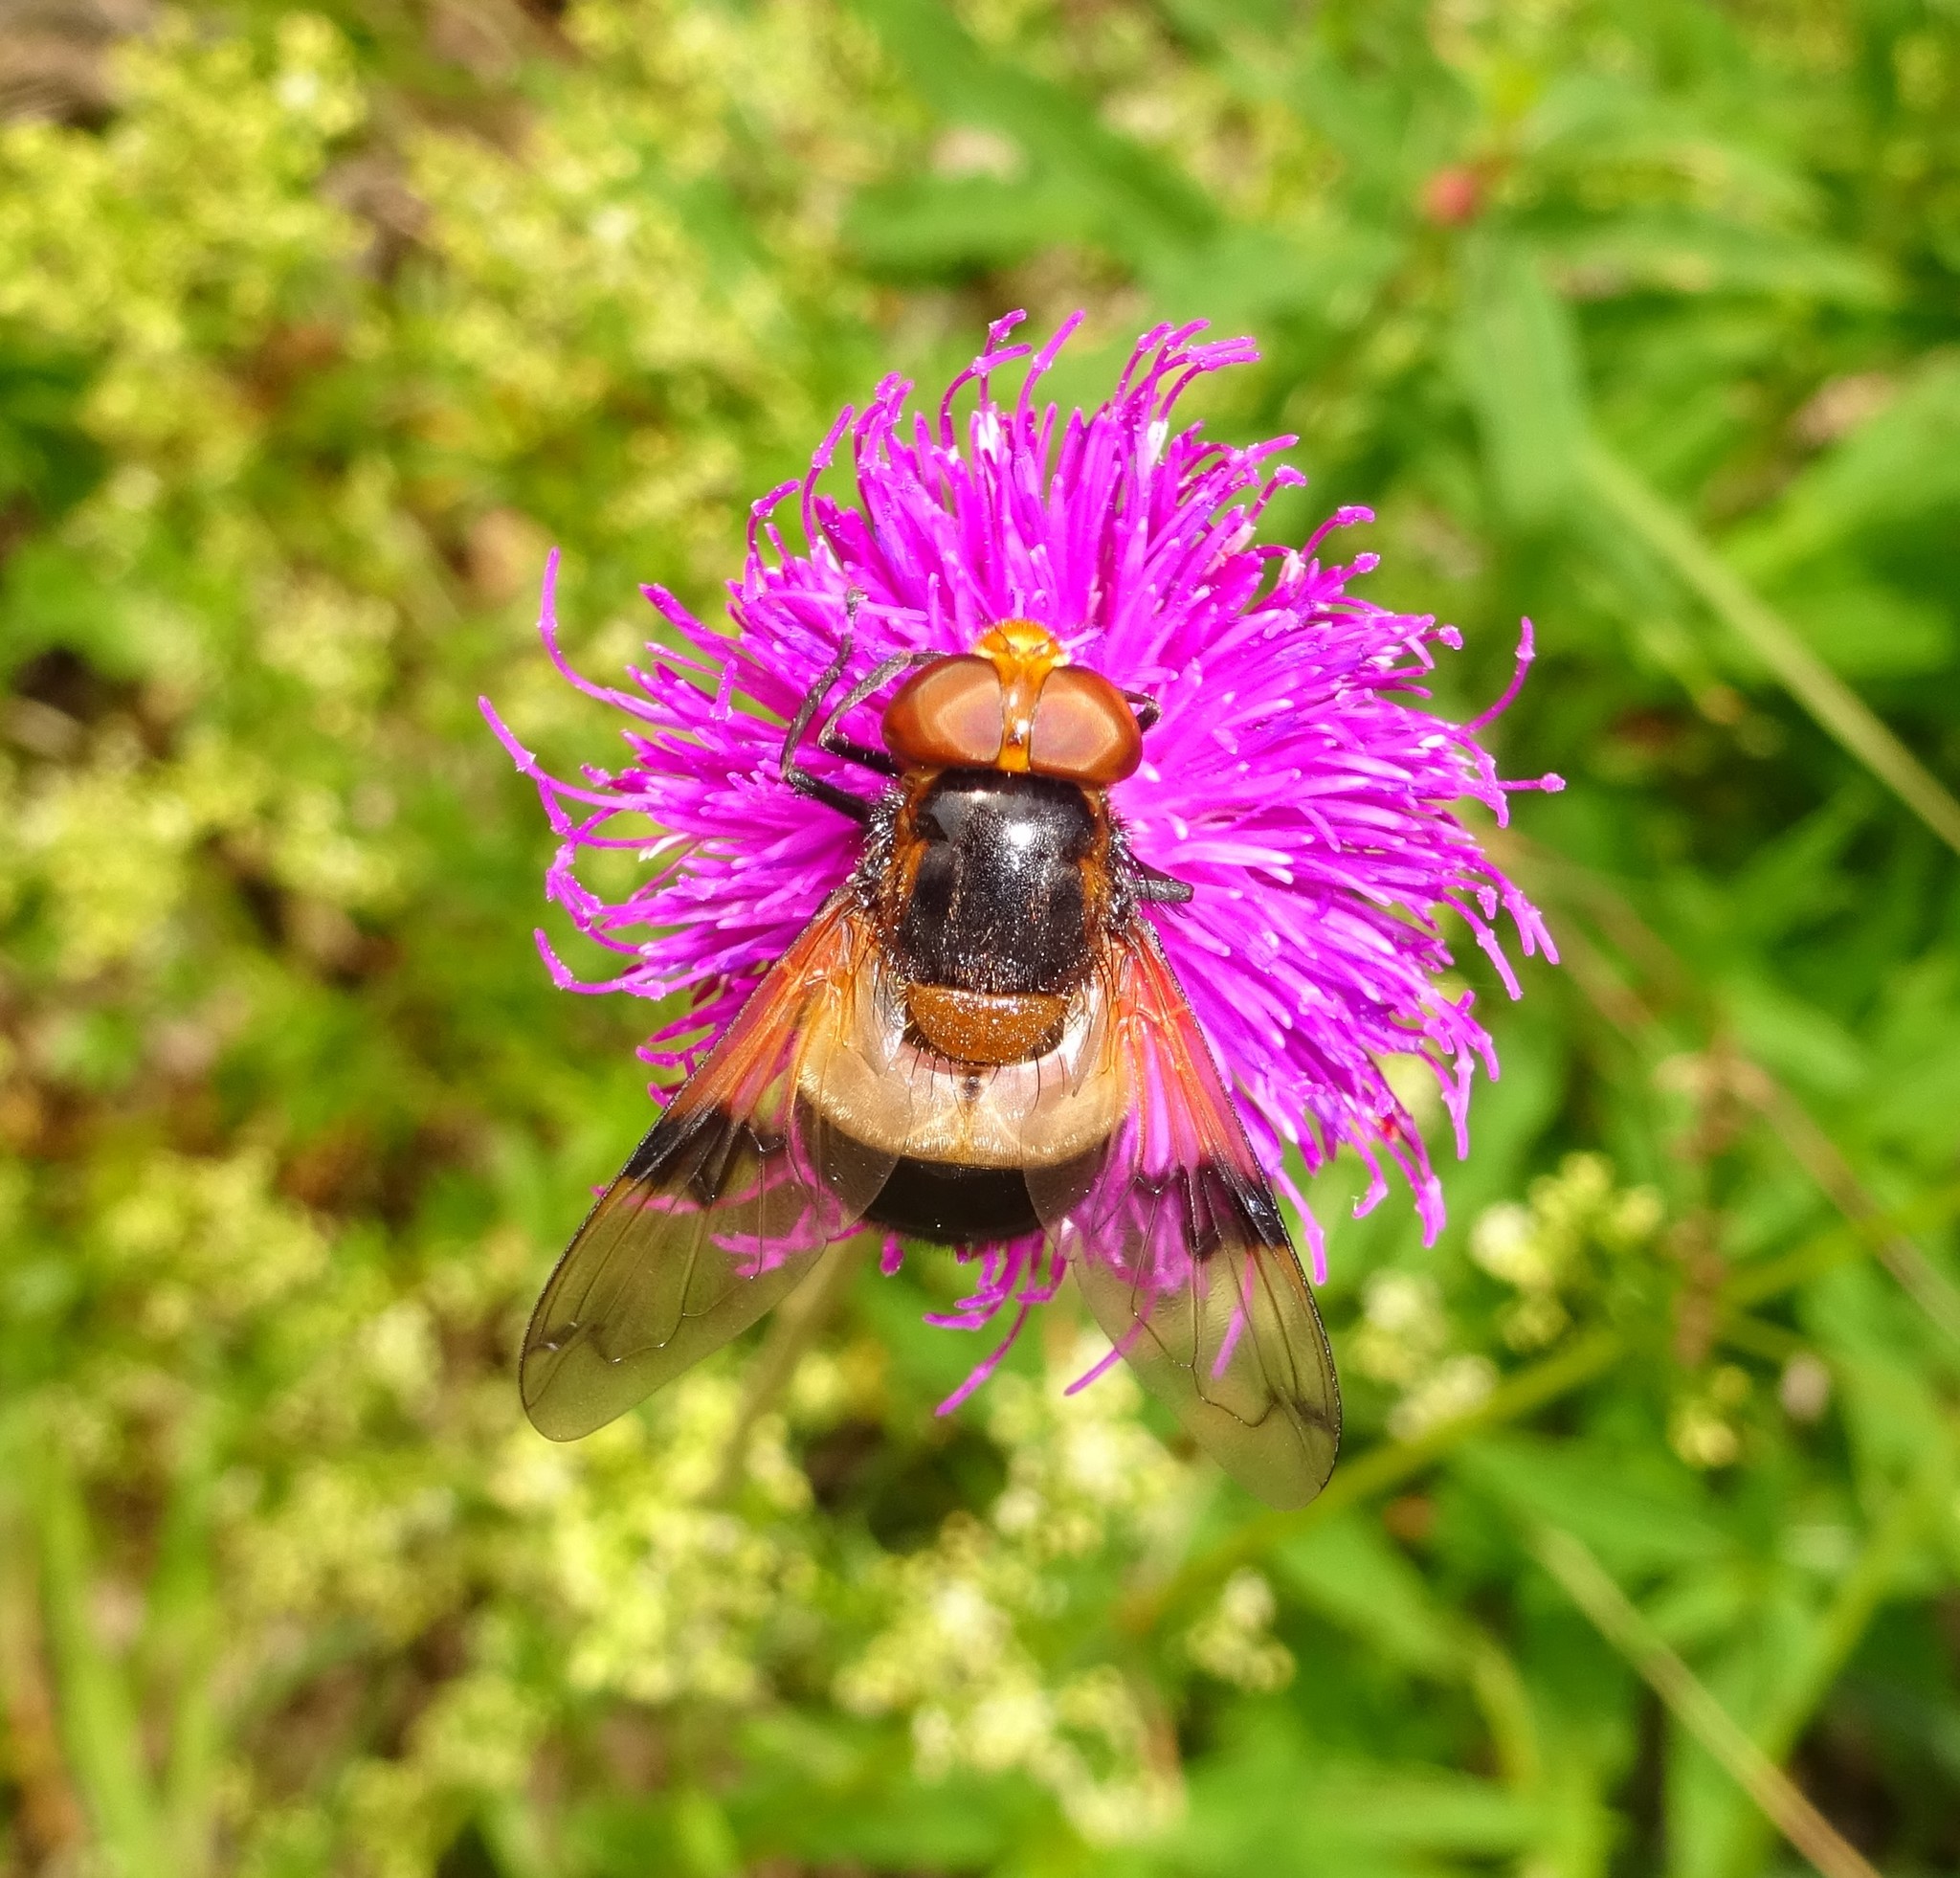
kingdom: Animalia
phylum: Arthropoda
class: Insecta
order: Diptera
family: Syrphidae
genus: Volucella
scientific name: Volucella pellucens
